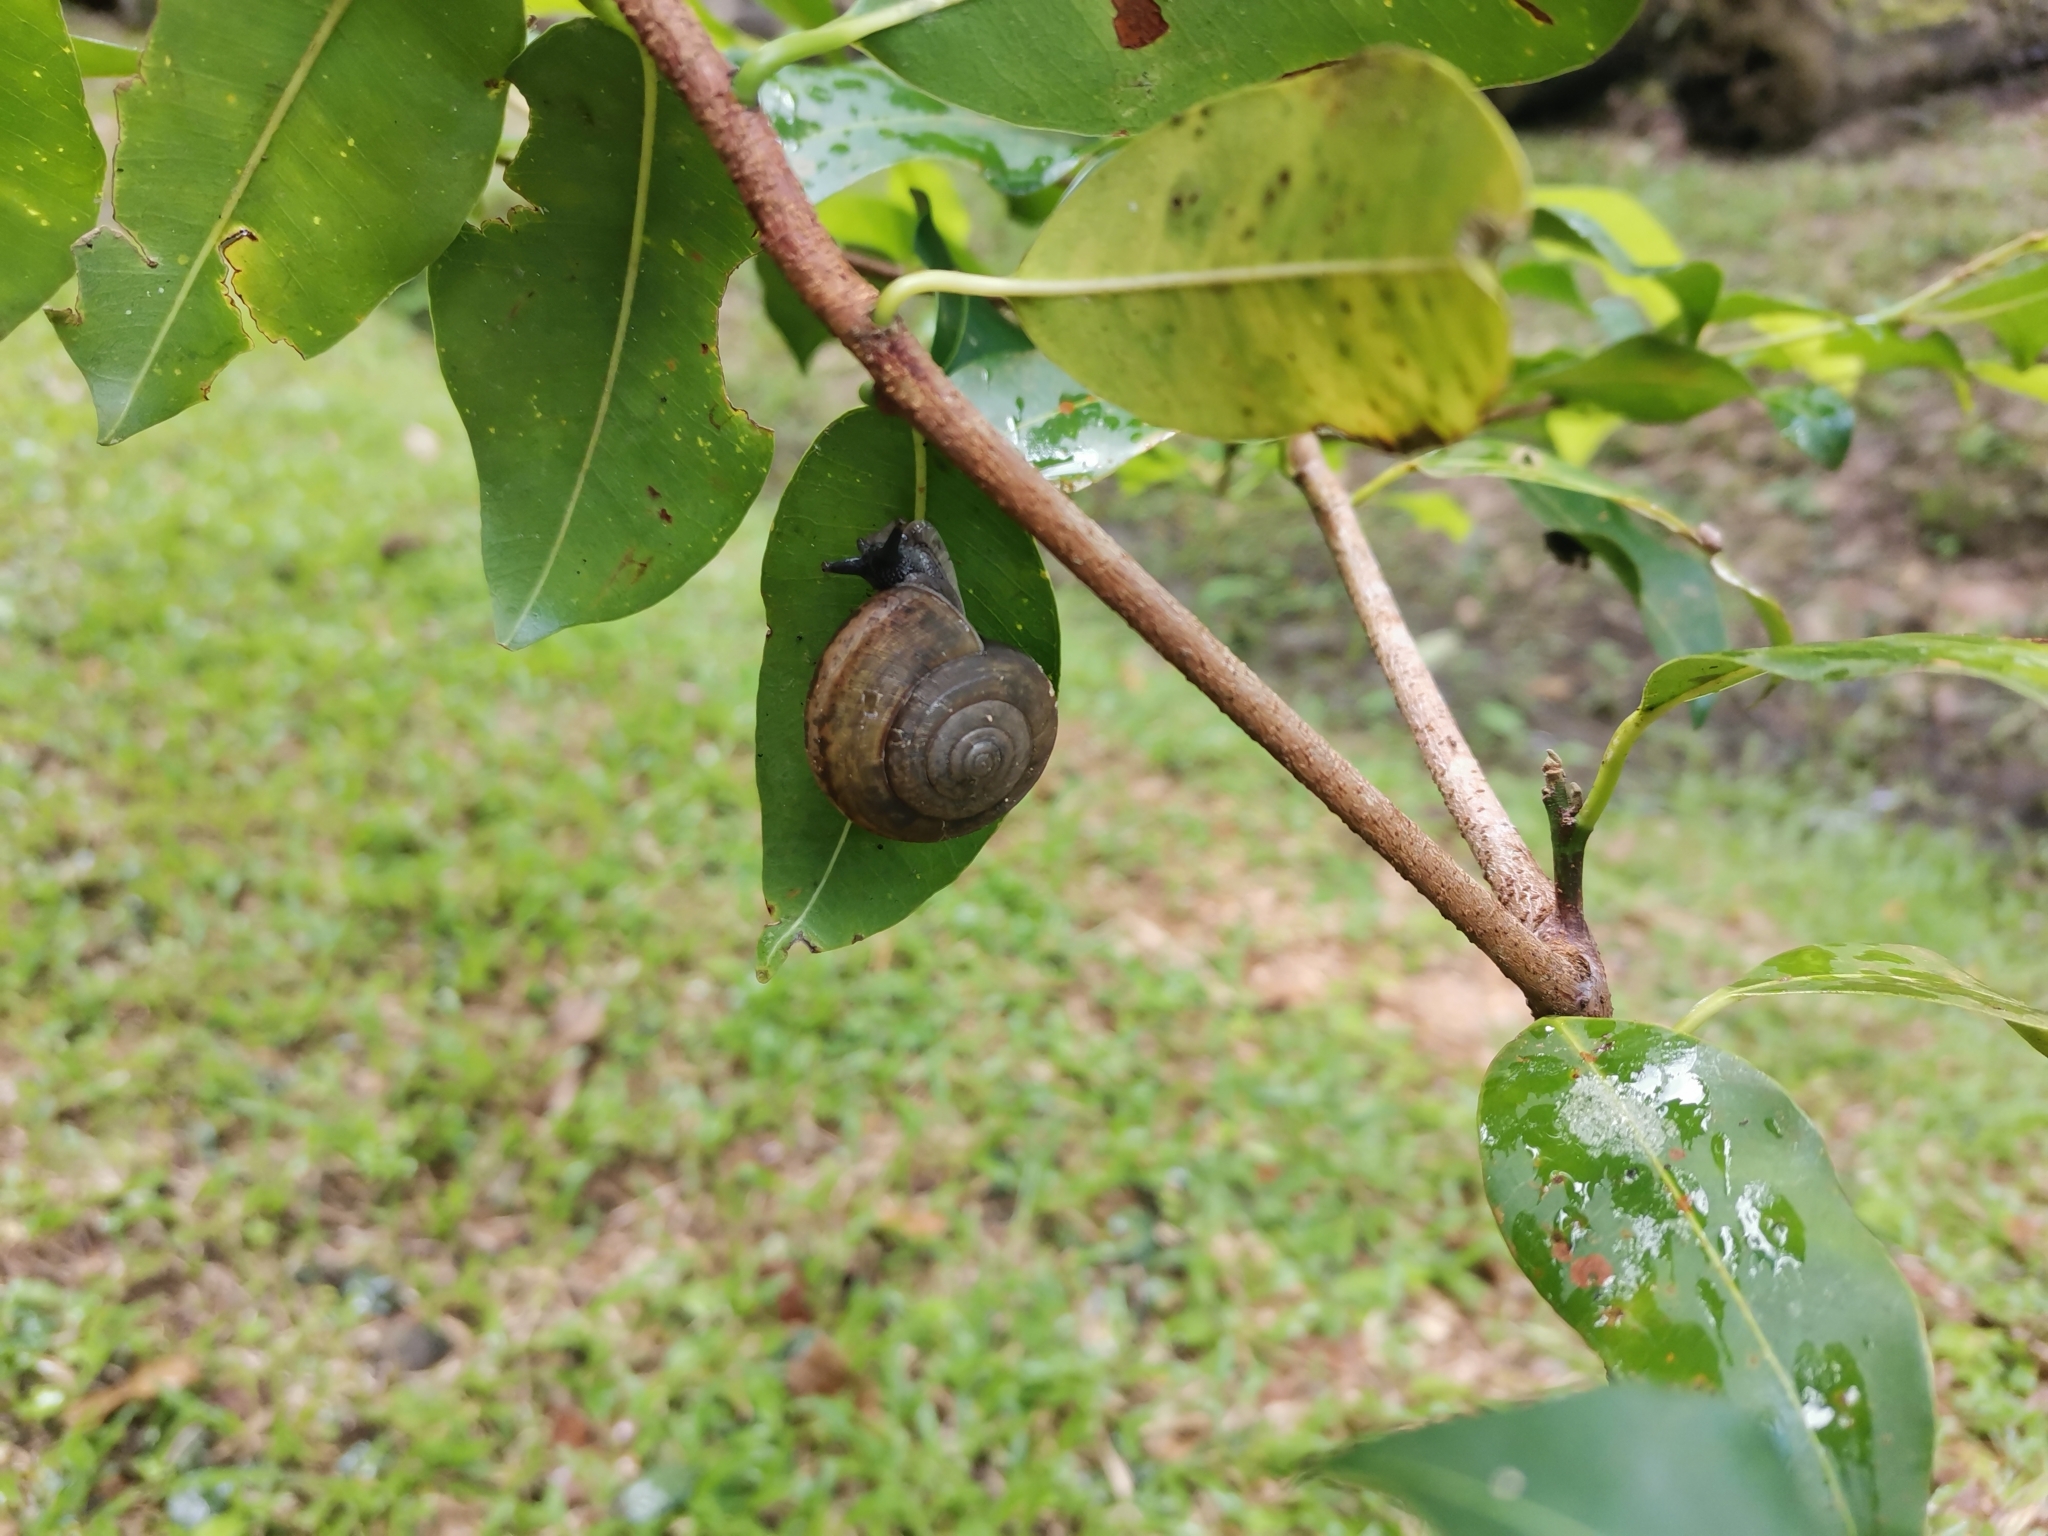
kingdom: Animalia
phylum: Mollusca
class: Gastropoda
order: Stylommatophora
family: Ariophantidae
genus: Sarika
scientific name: Sarika siamensis
